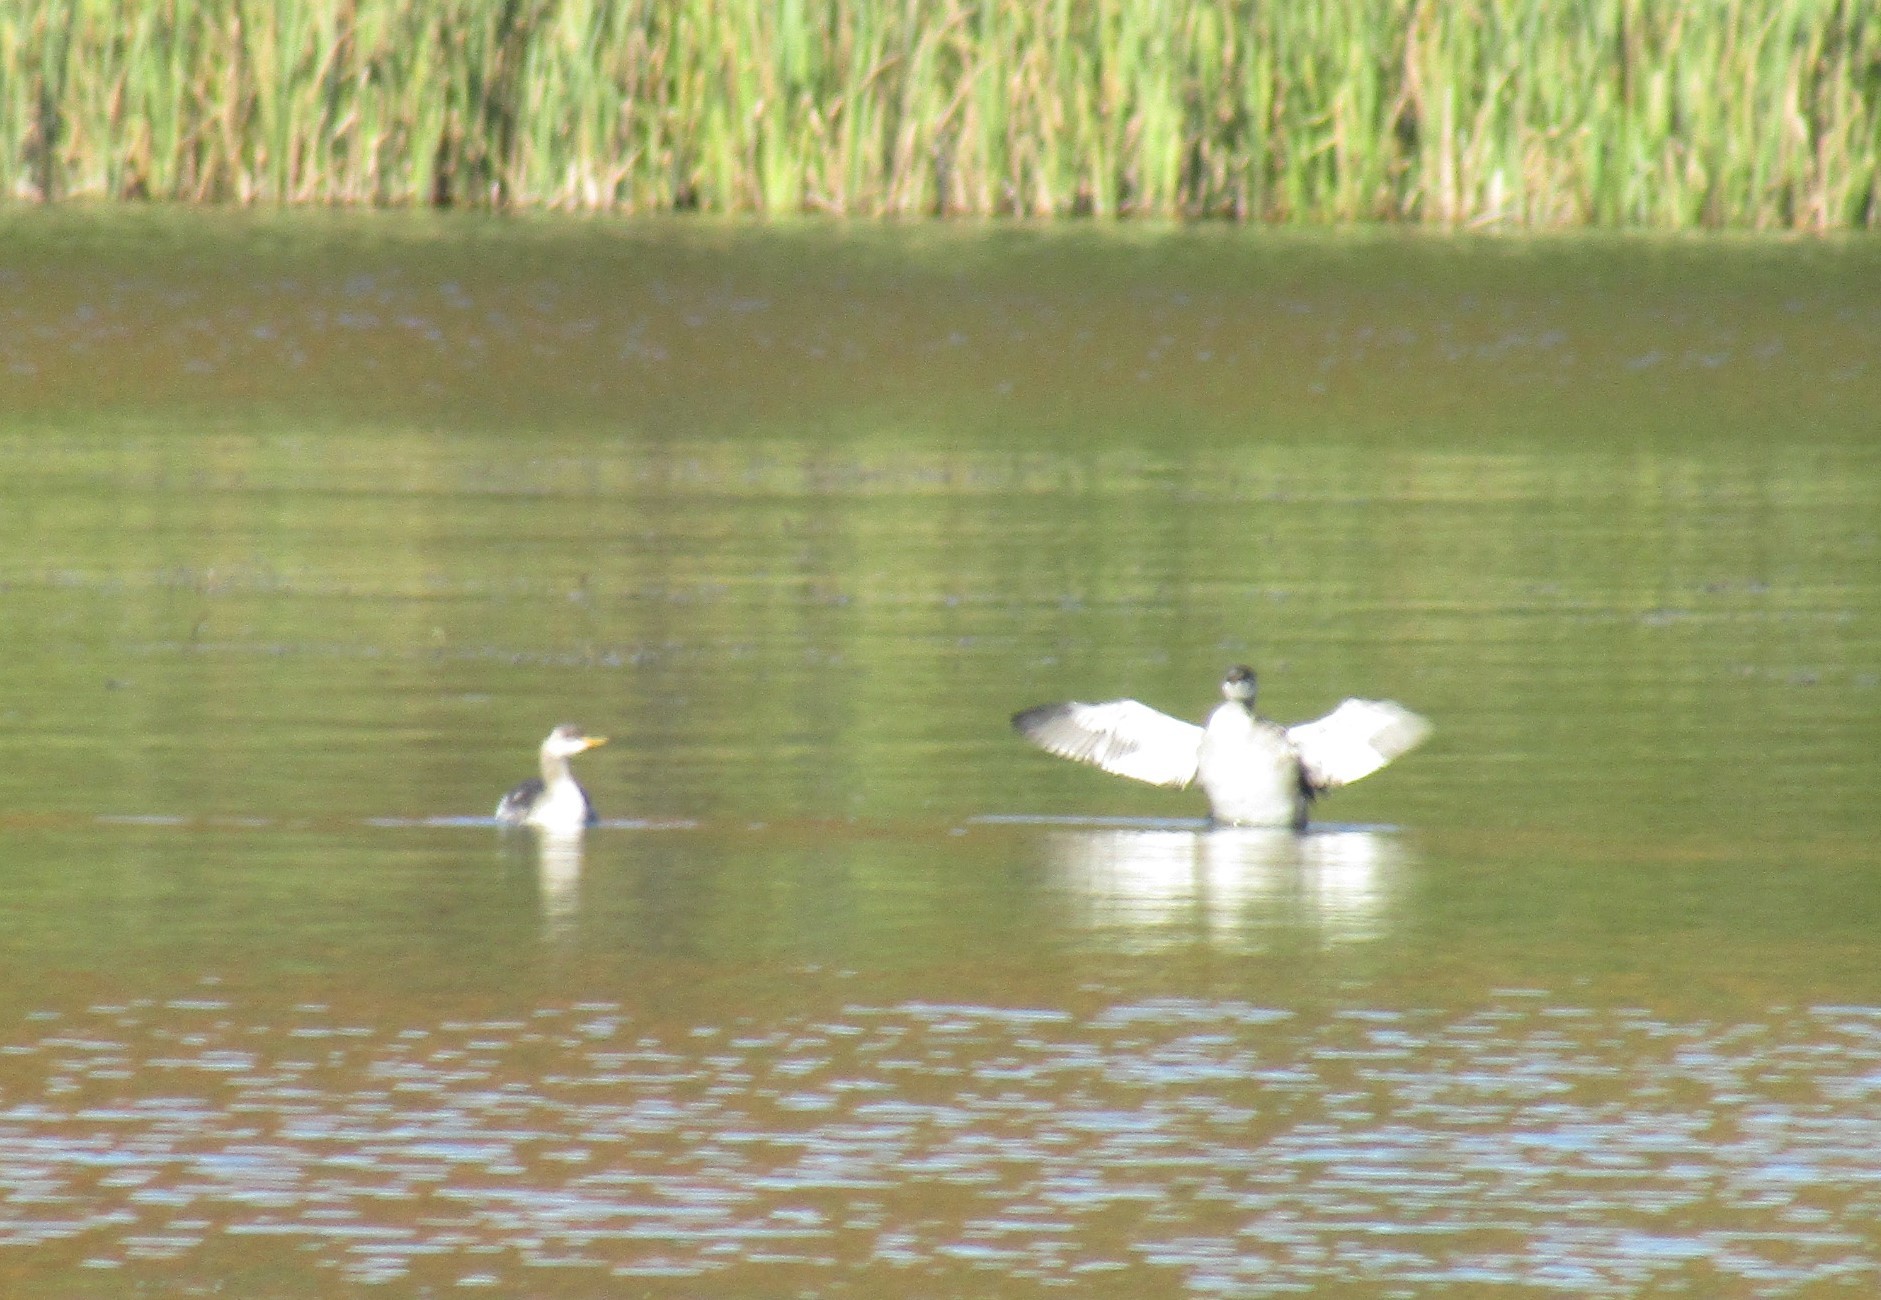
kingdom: Animalia
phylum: Chordata
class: Aves
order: Podicipediformes
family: Podicipedidae
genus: Podiceps
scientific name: Podiceps grisegena
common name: Red-necked grebe
